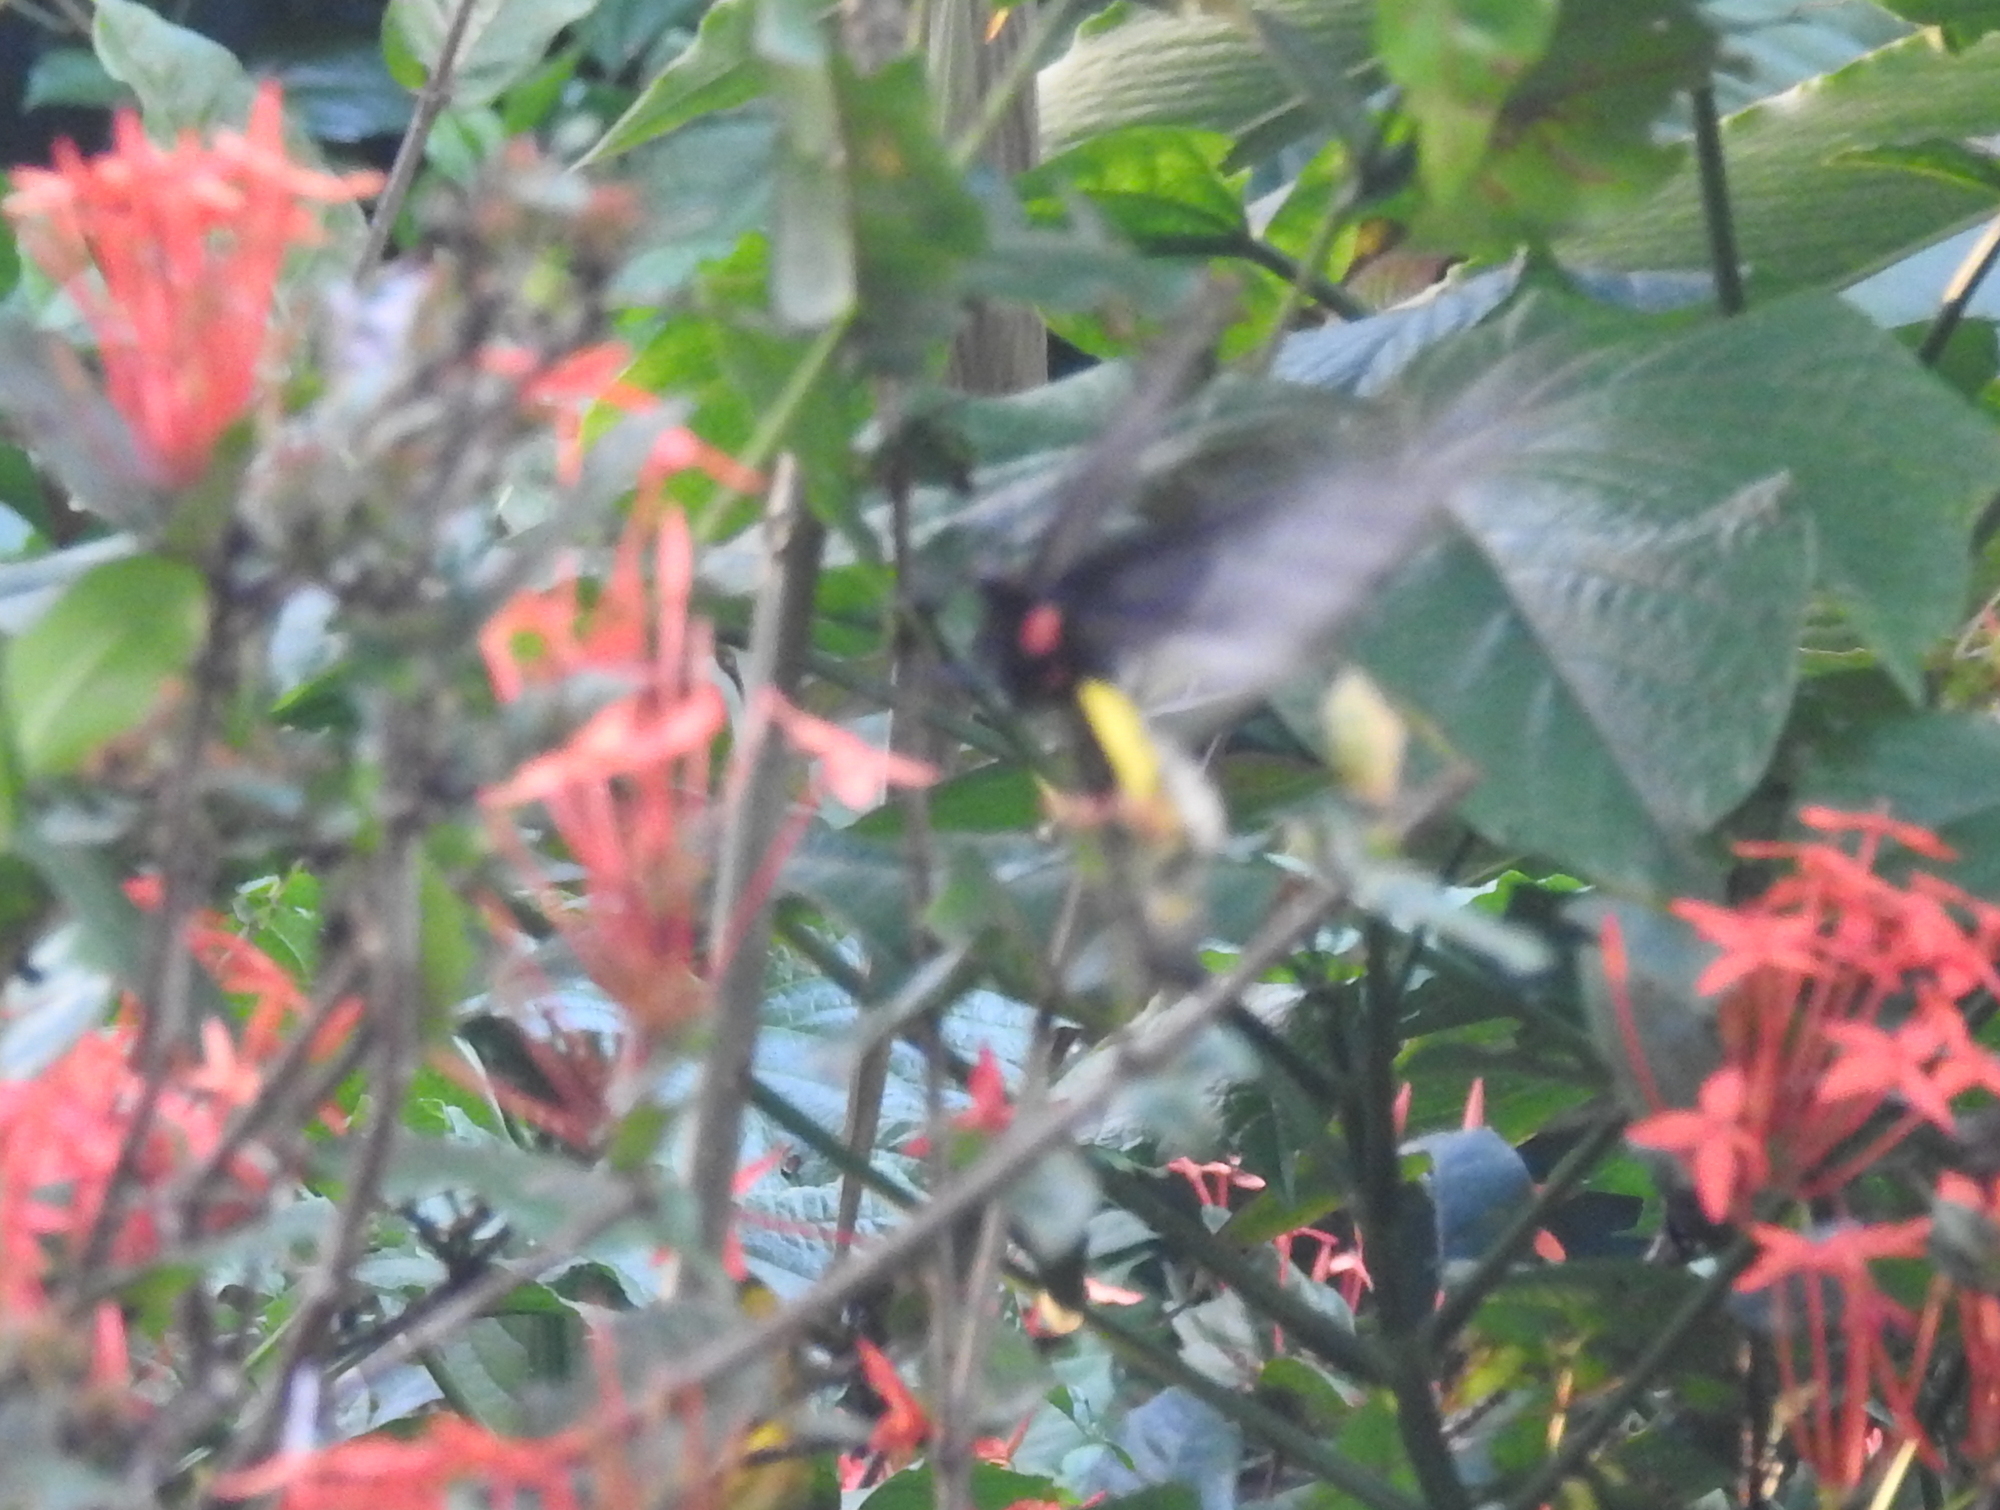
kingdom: Animalia
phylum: Arthropoda
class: Insecta
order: Lepidoptera
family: Papilionidae
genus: Troides
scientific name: Troides minos
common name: Malabar birdwing
